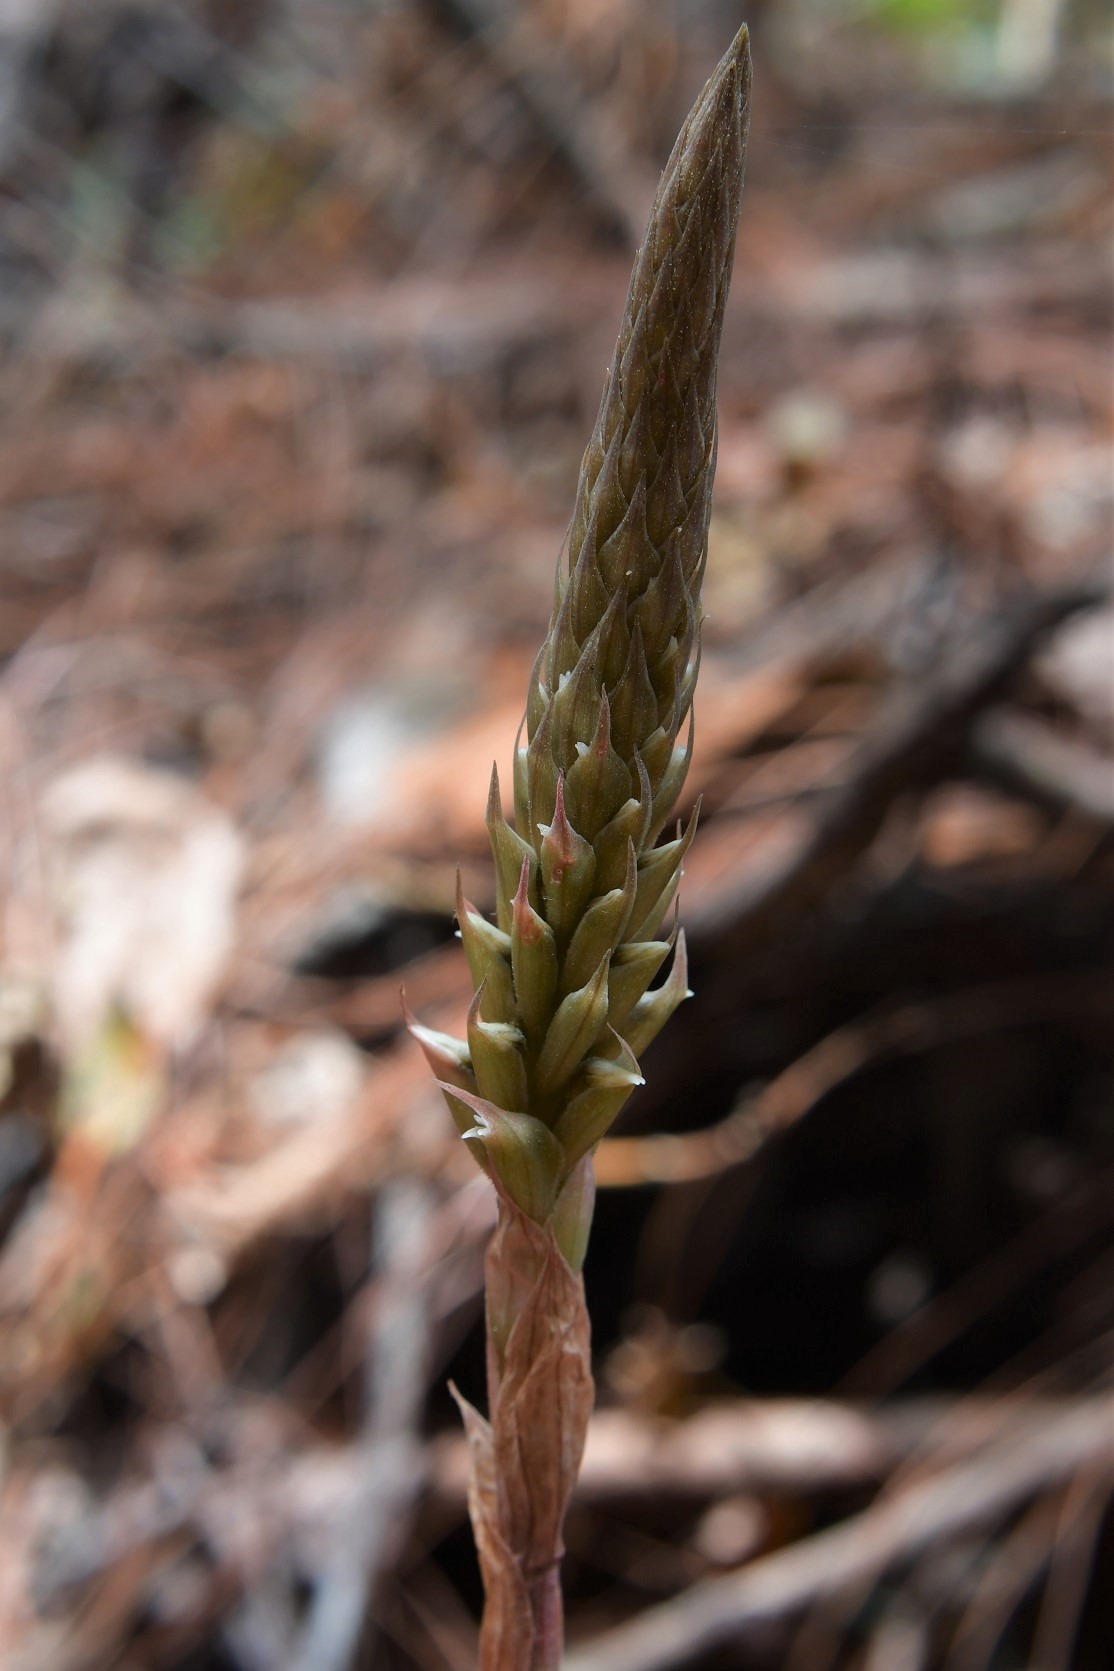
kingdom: Plantae
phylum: Tracheophyta
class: Liliopsida
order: Asparagales
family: Orchidaceae
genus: Aulosepalum
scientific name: Aulosepalum pyramidale
